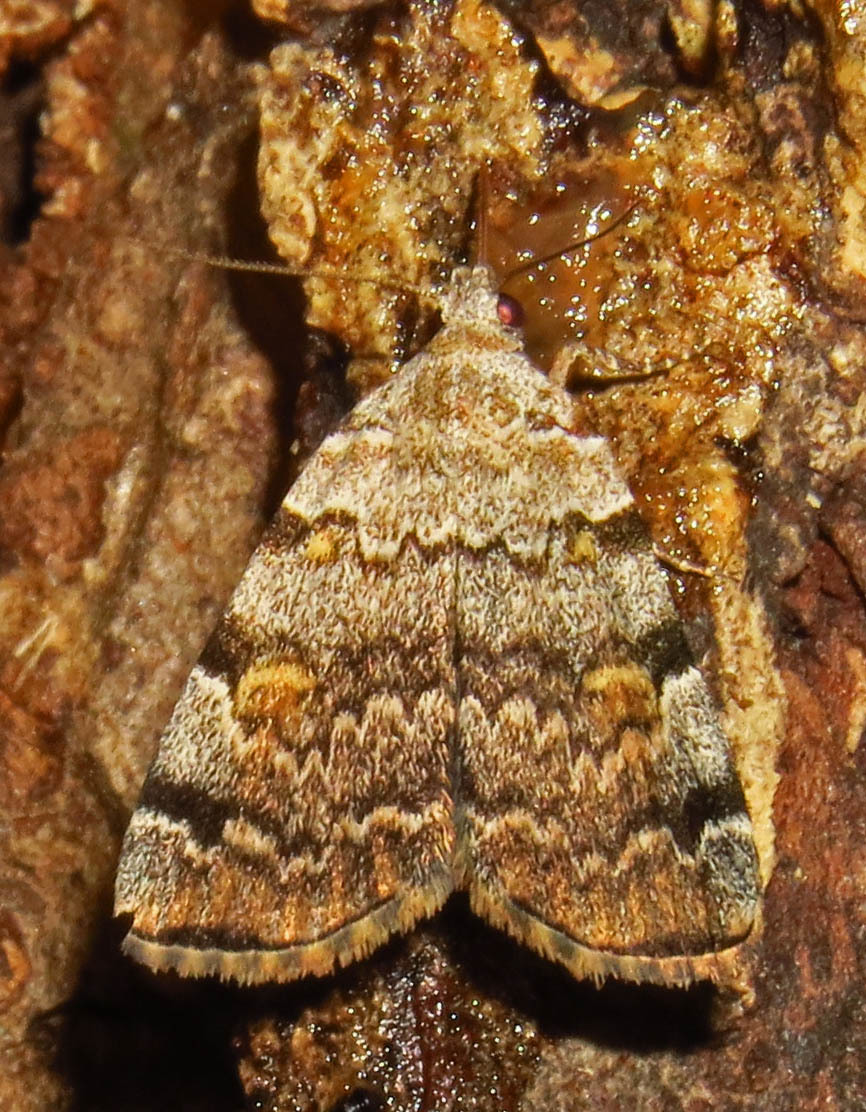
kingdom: Animalia
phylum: Arthropoda
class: Insecta
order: Lepidoptera
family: Erebidae
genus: Idia
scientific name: Idia americalis
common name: American idia moth
